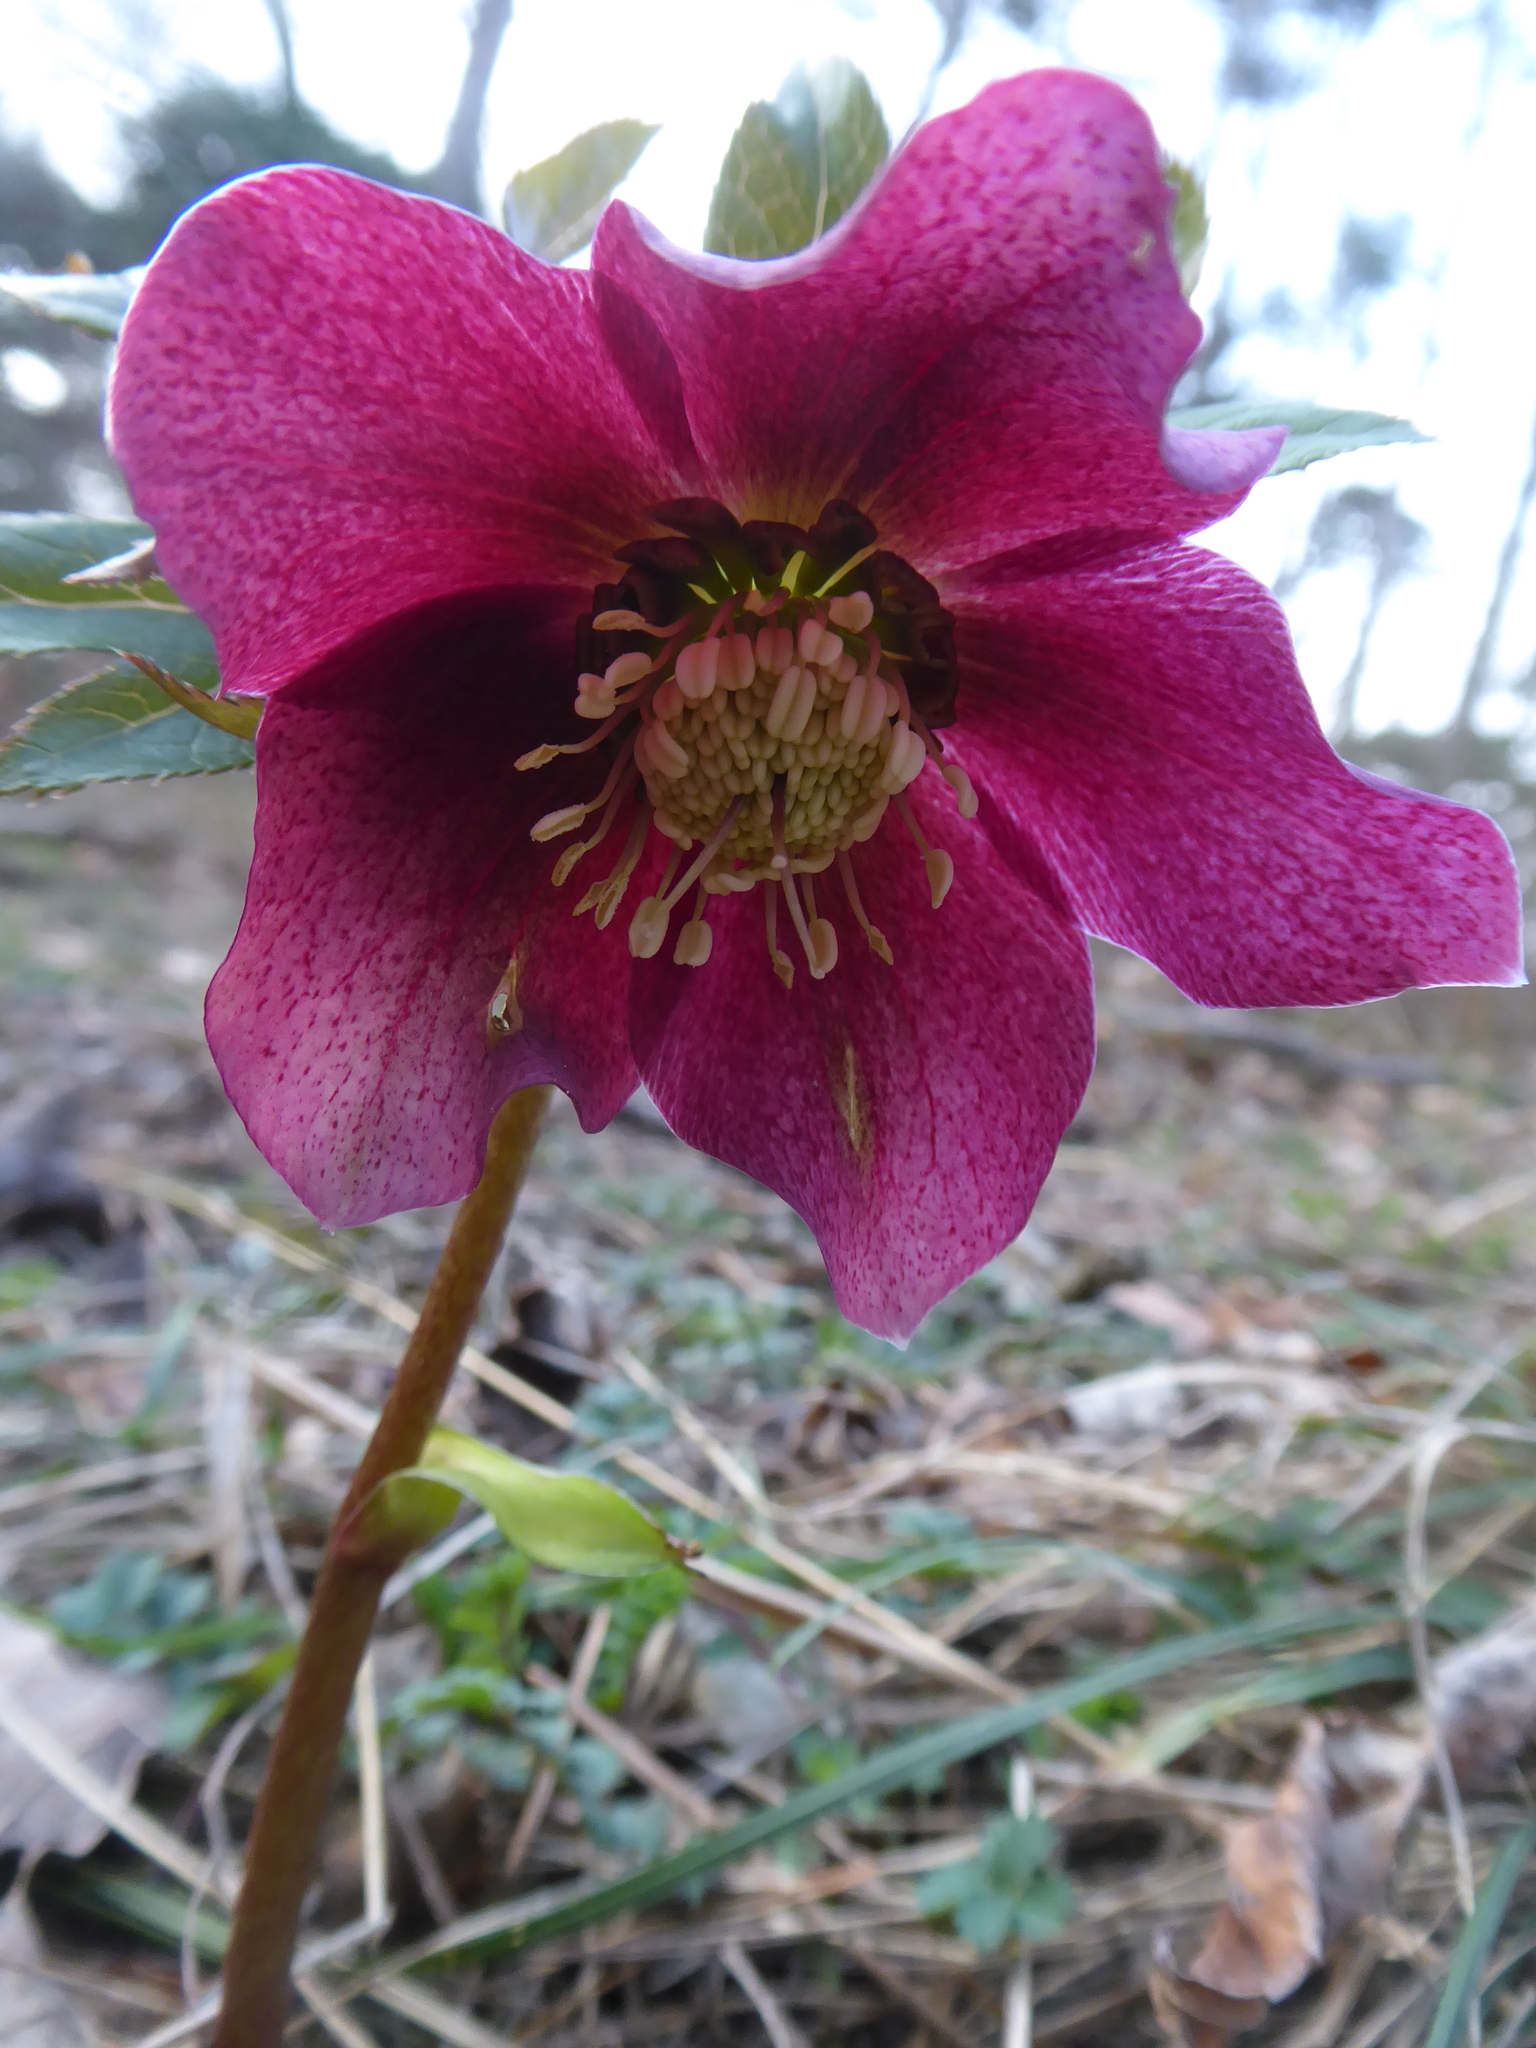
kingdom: Plantae
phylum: Tracheophyta
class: Magnoliopsida
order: Ranunculales
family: Ranunculaceae
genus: Helleborus
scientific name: Helleborus hybridus
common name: Hybrid lenten-rose
